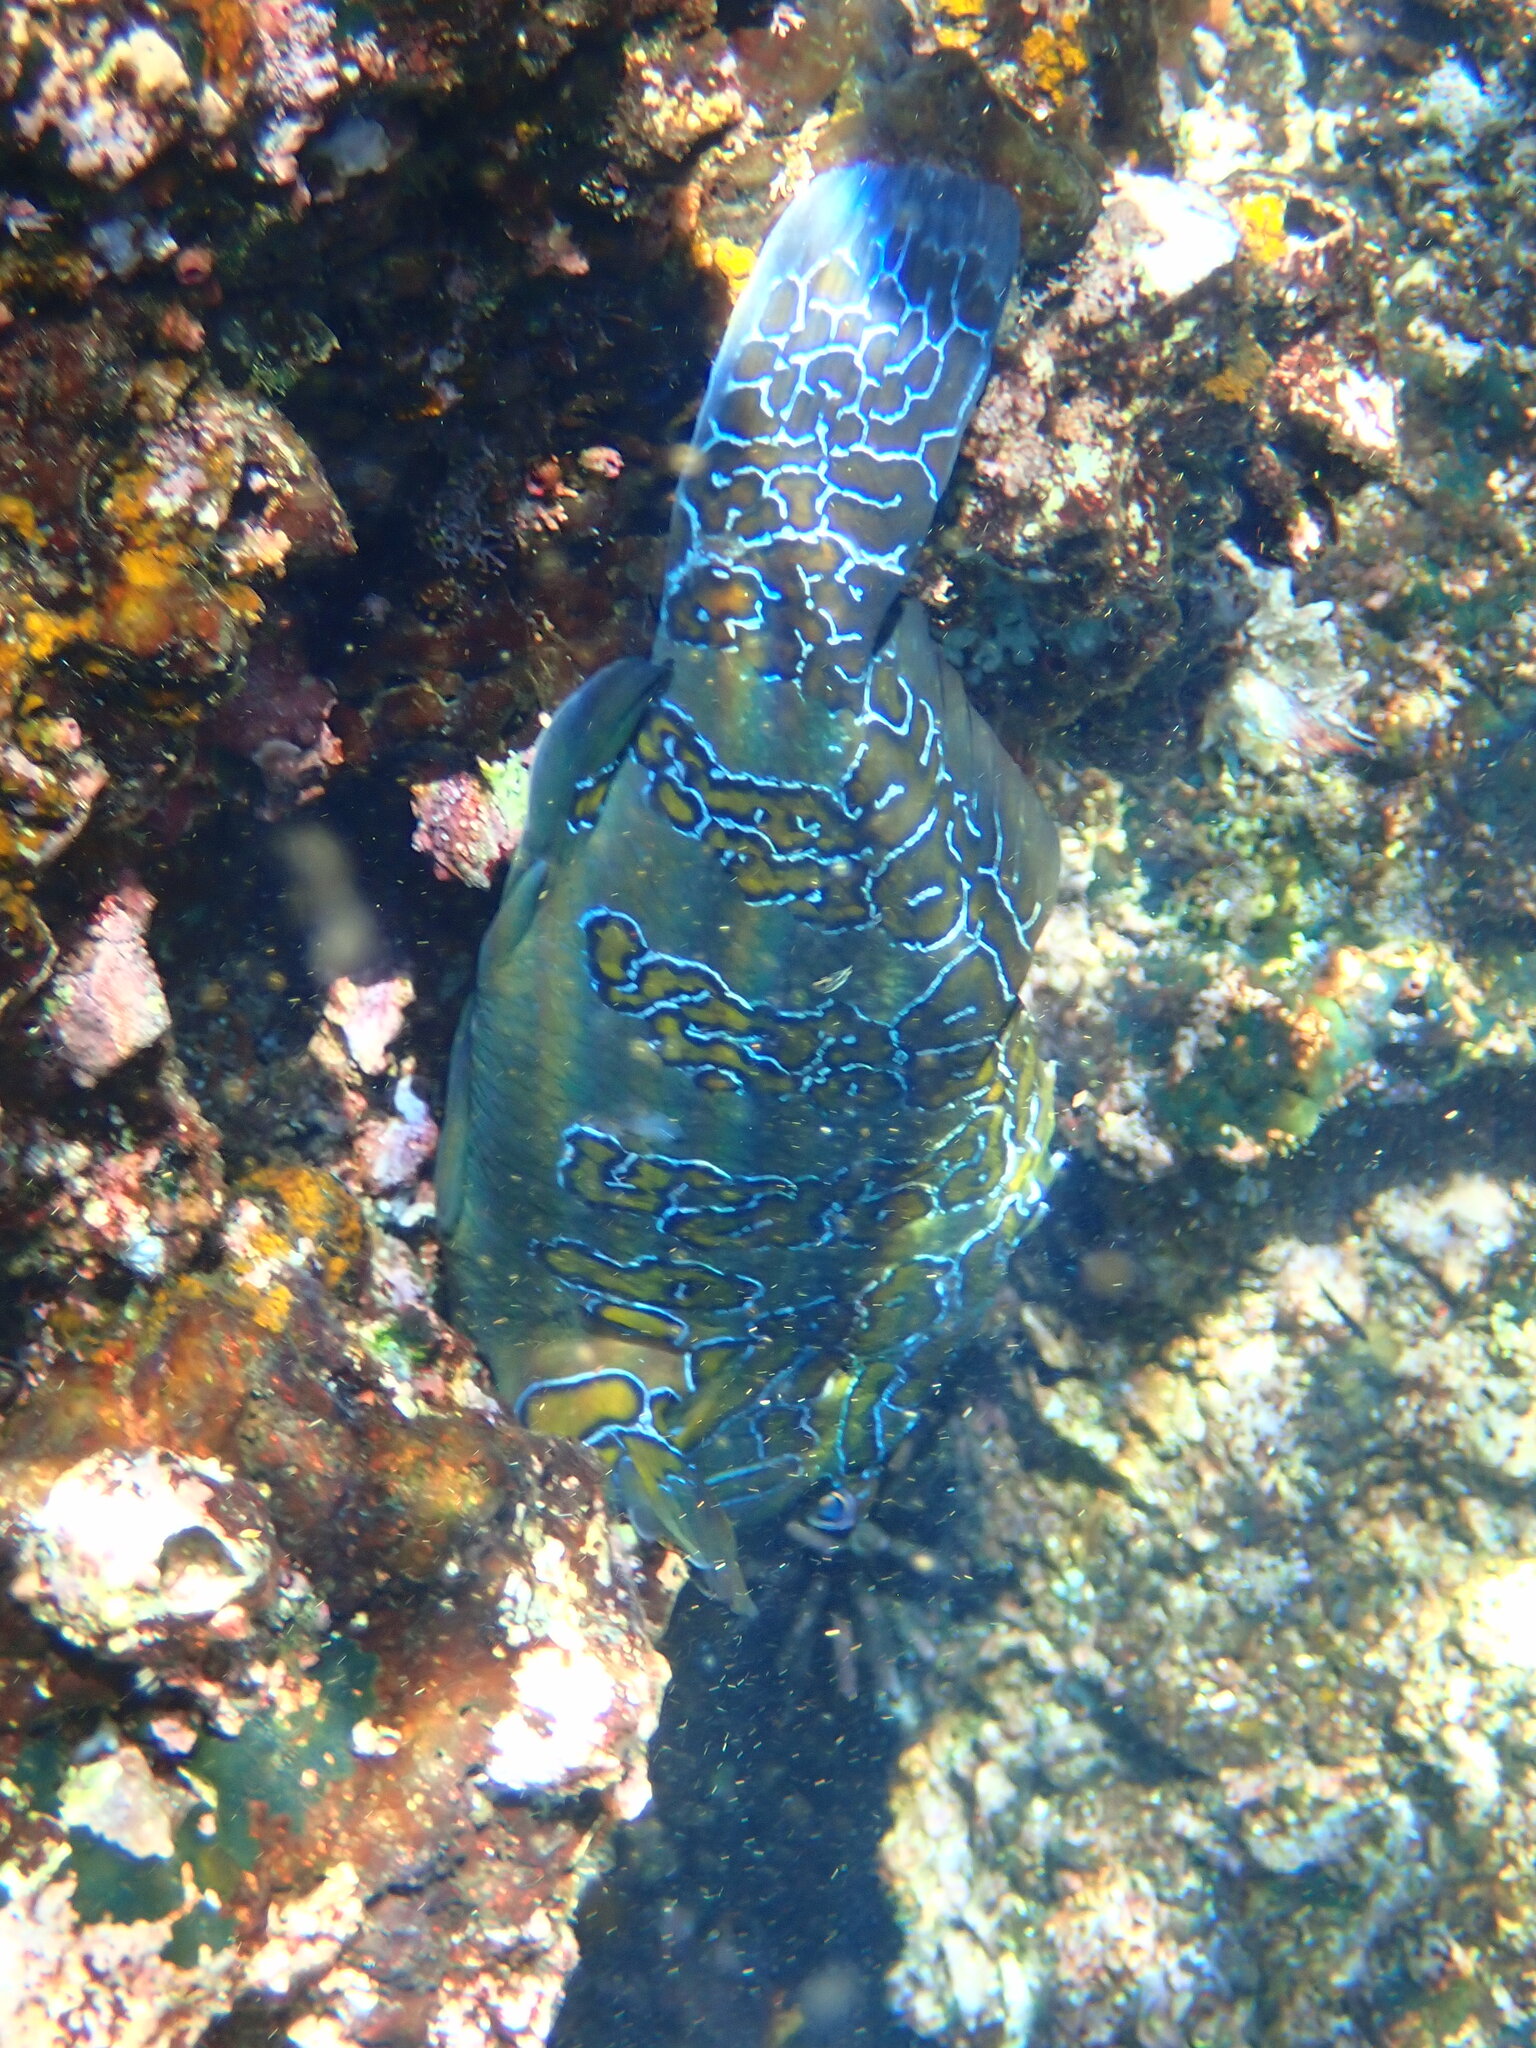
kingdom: Animalia
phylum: Chordata
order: Perciformes
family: Cirrhitidae
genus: Cirrhitus
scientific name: Cirrhitus rivulatus
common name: Giant hawkfish
